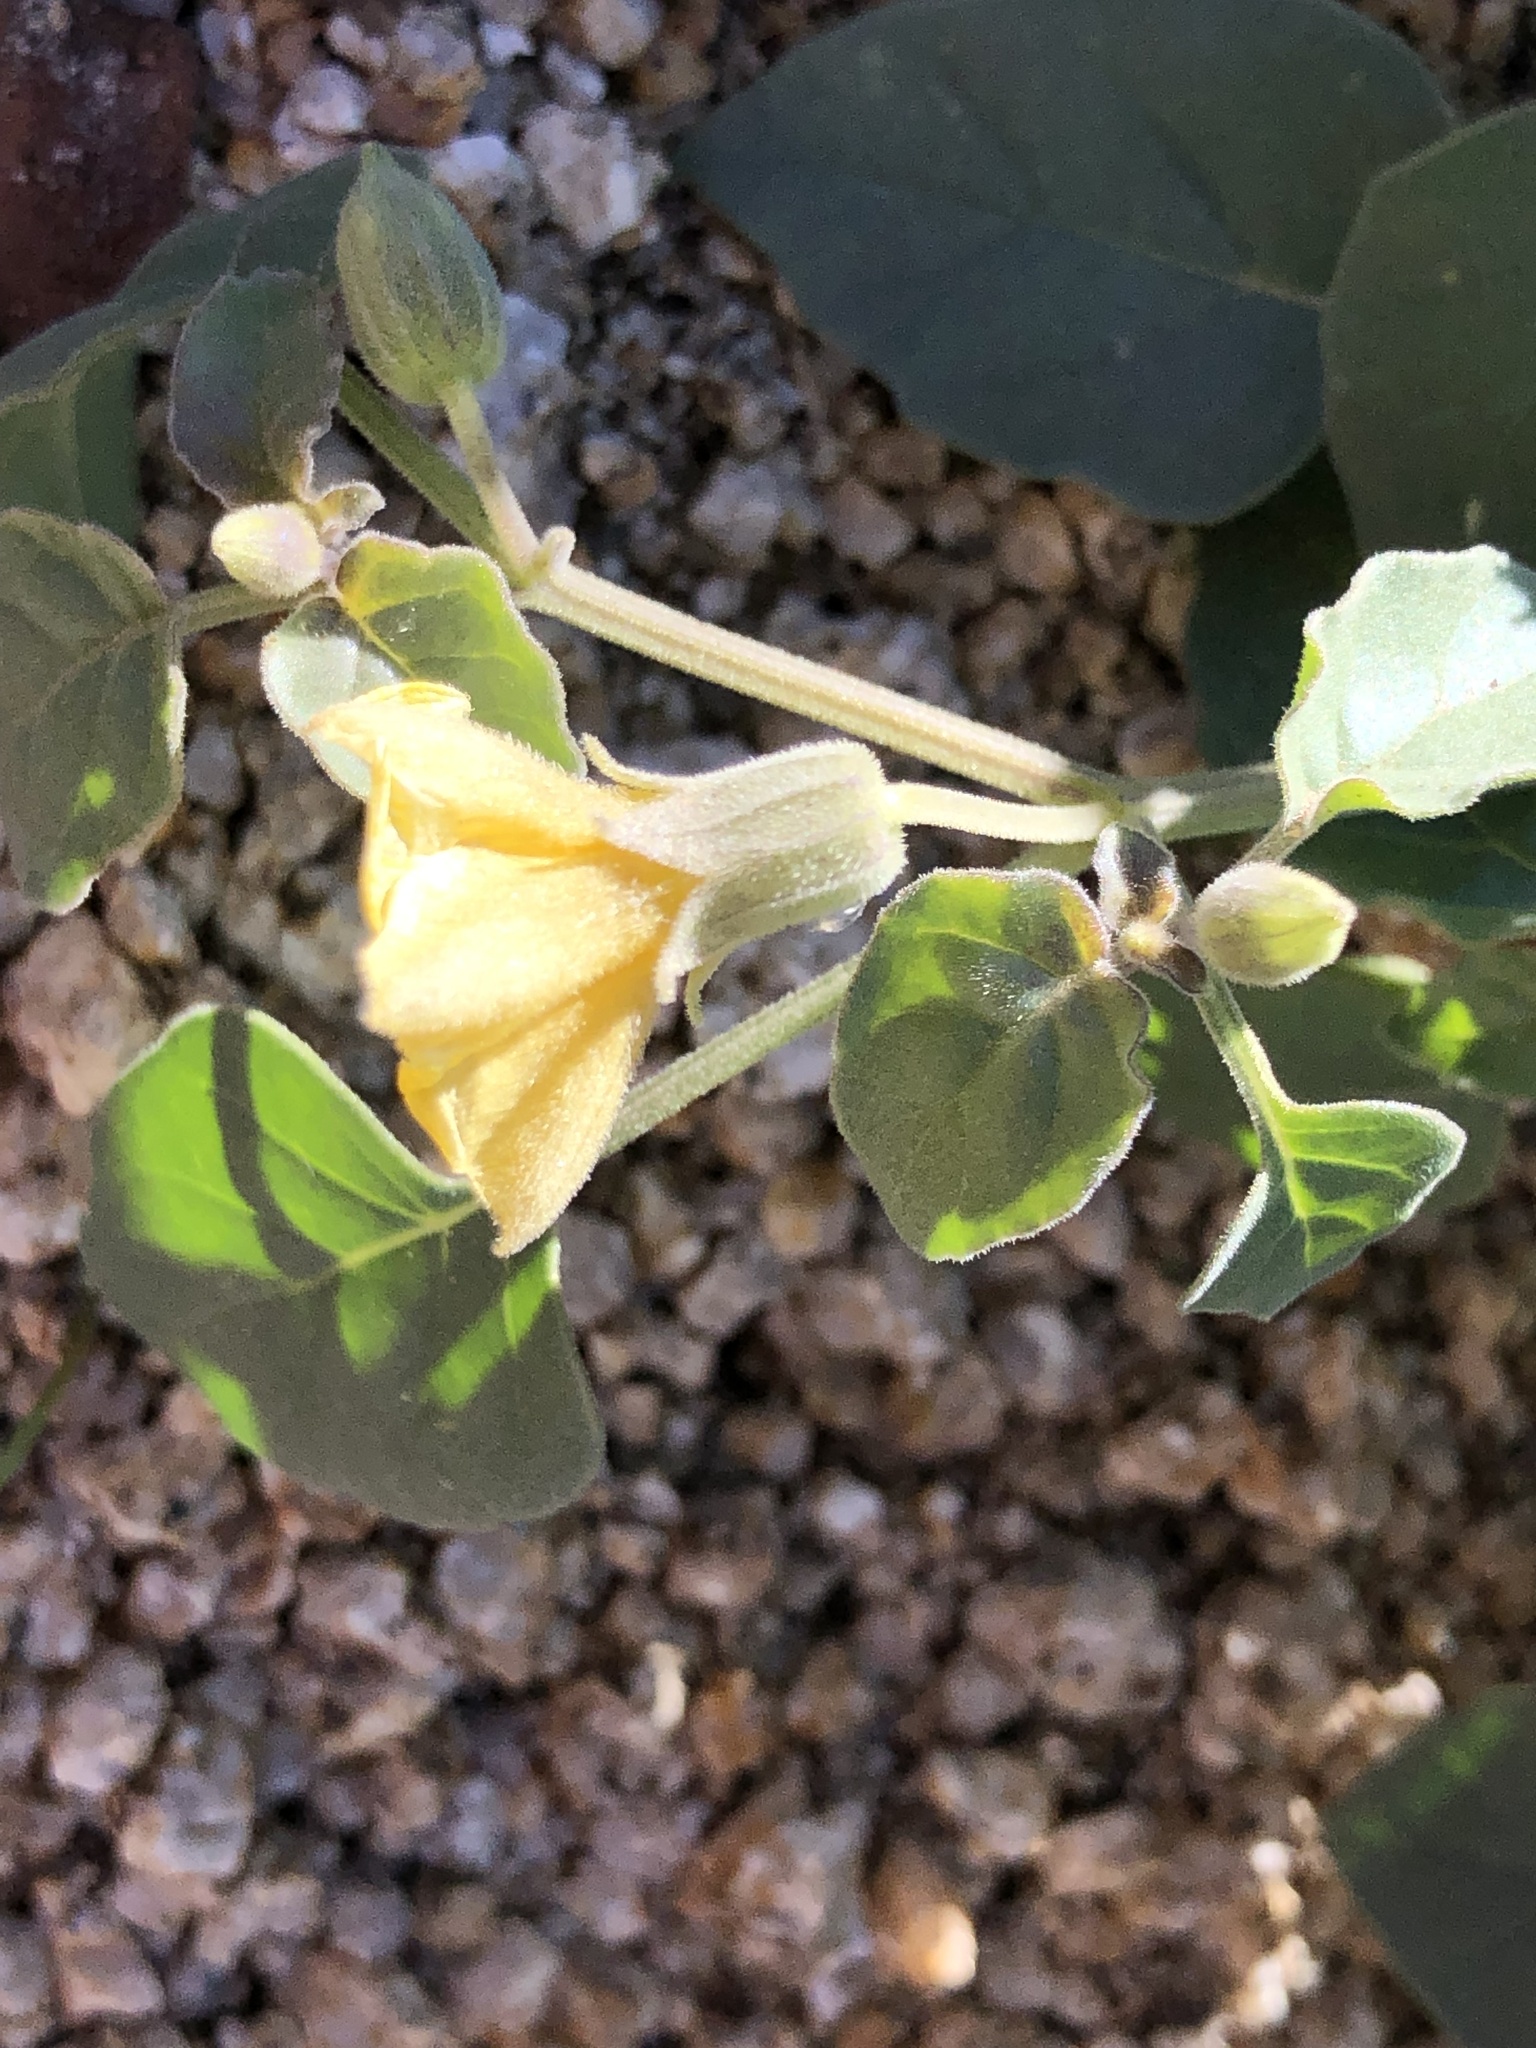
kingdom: Plantae
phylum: Tracheophyta
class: Magnoliopsida
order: Solanales
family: Solanaceae
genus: Physalis
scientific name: Physalis crassifolia
